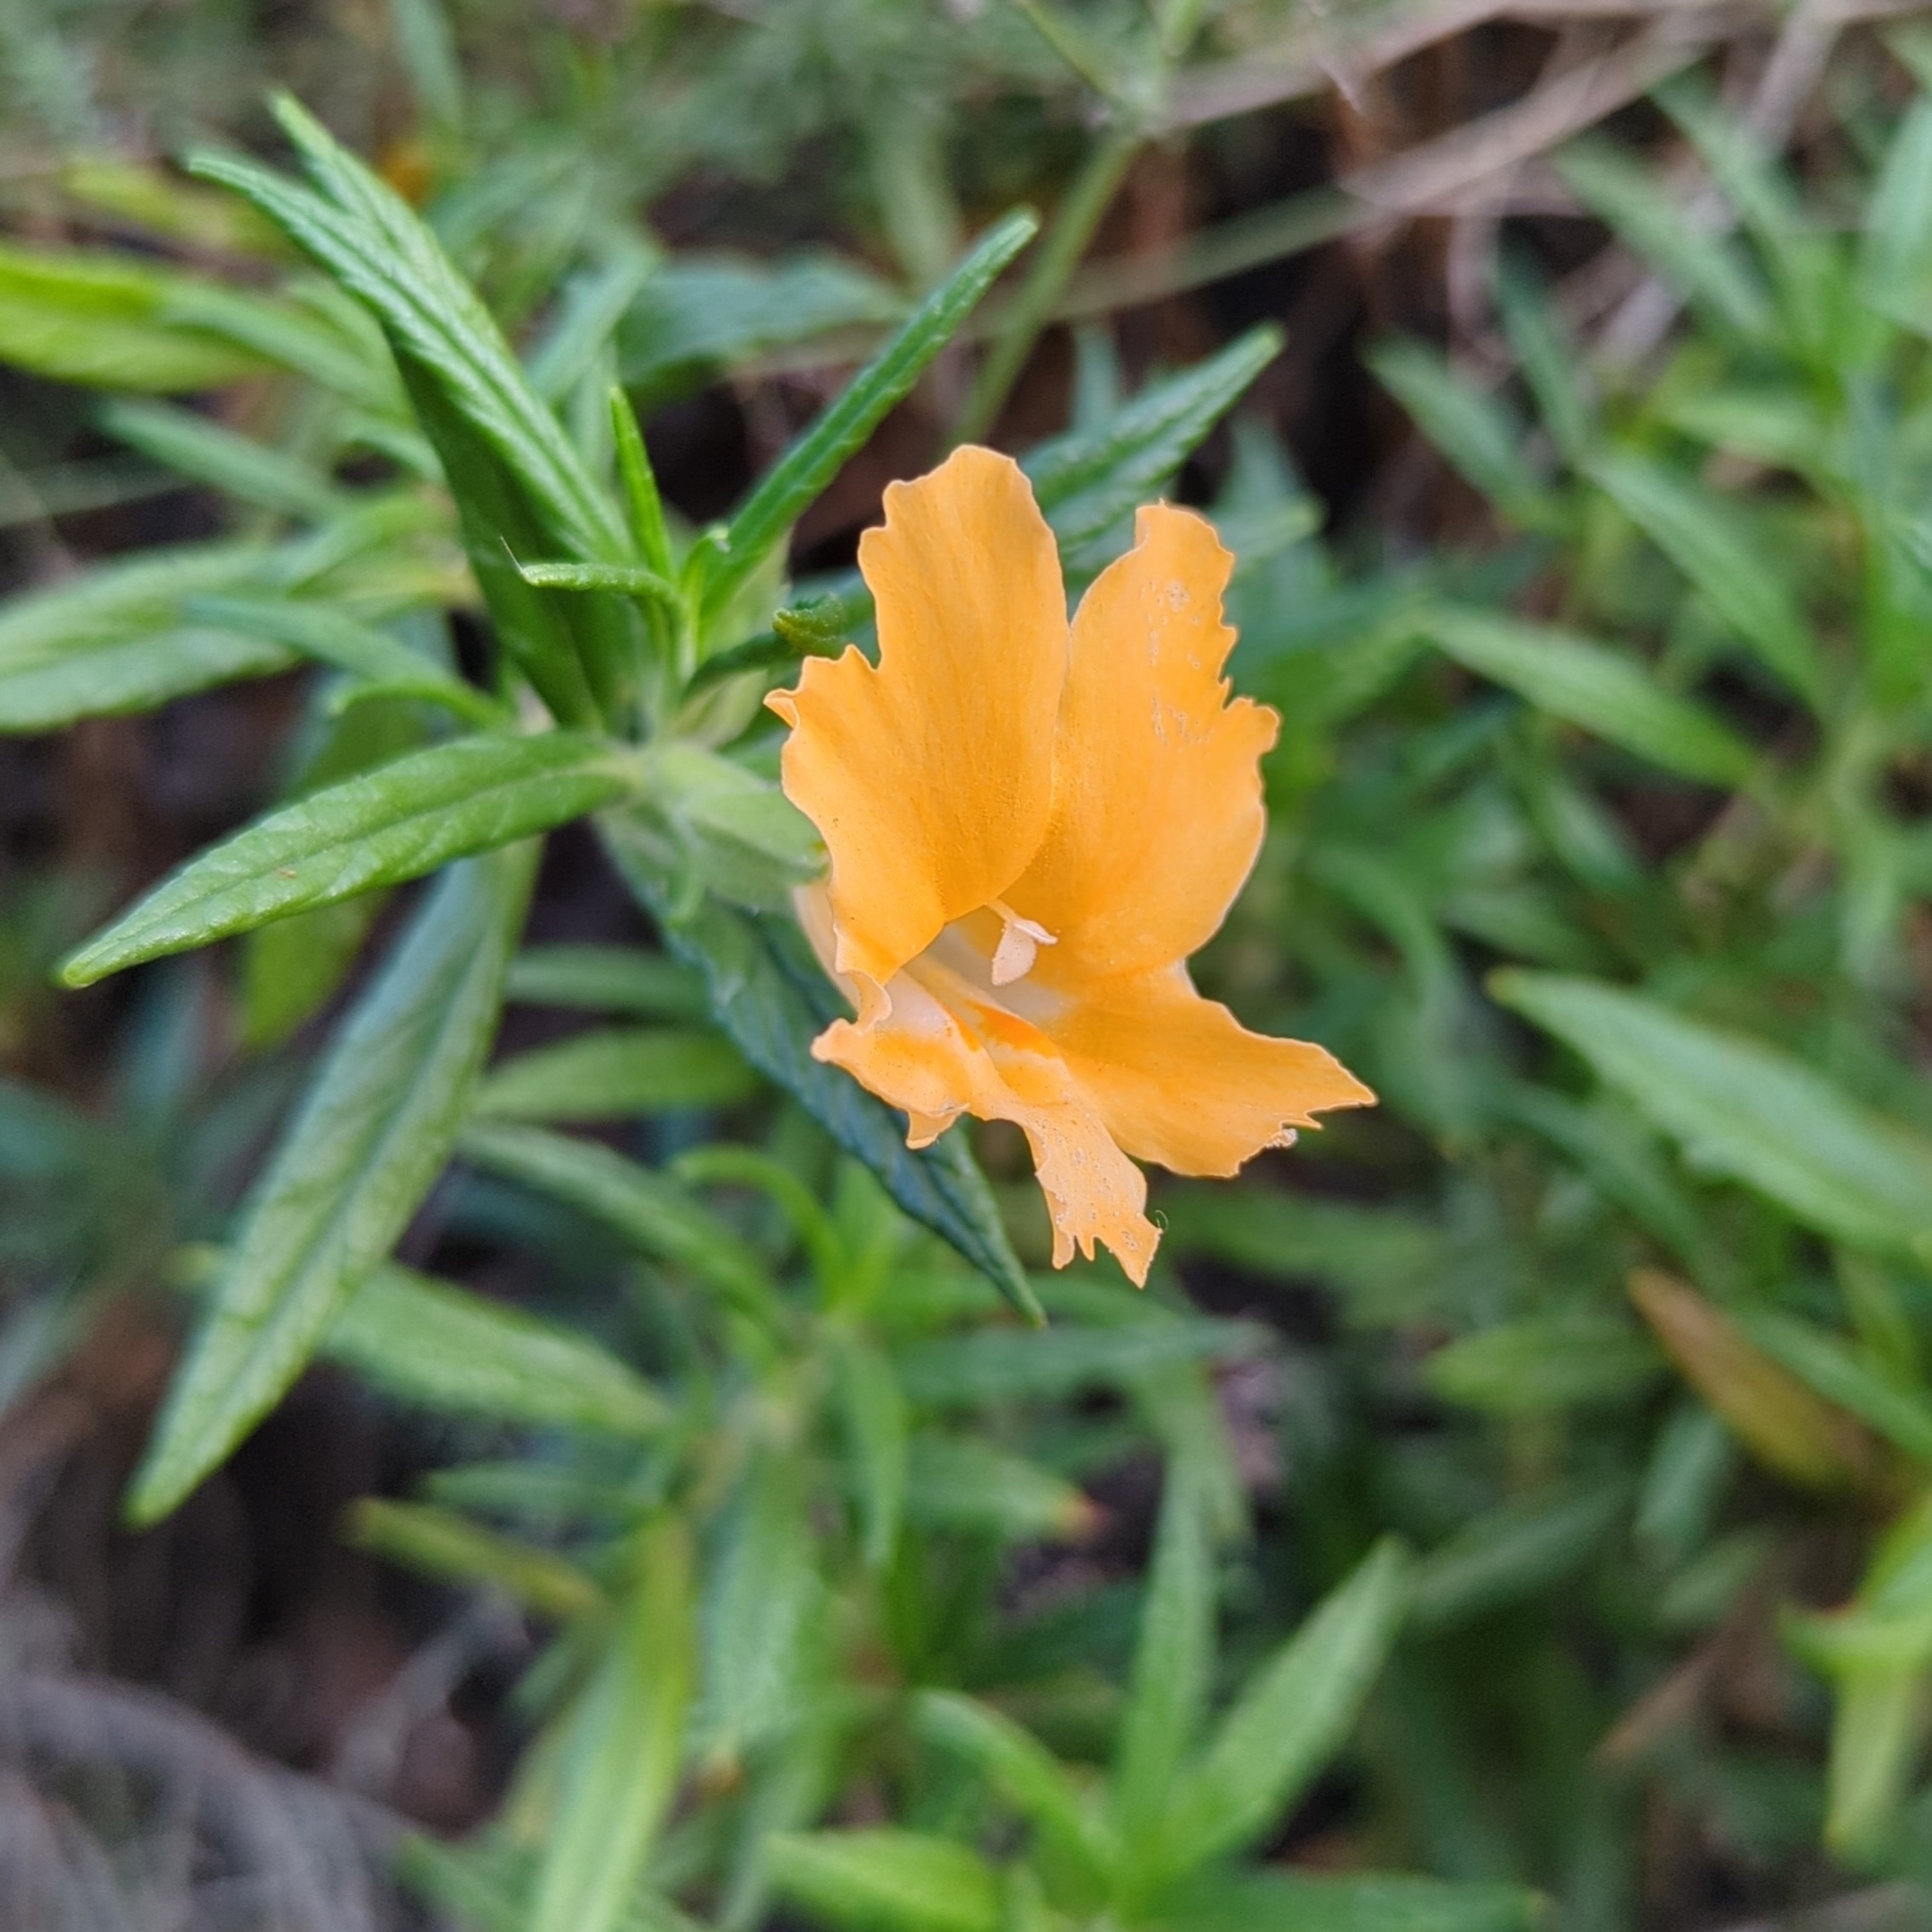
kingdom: Plantae
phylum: Tracheophyta
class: Magnoliopsida
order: Lamiales
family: Phrymaceae
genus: Diplacus
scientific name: Diplacus longiflorus
